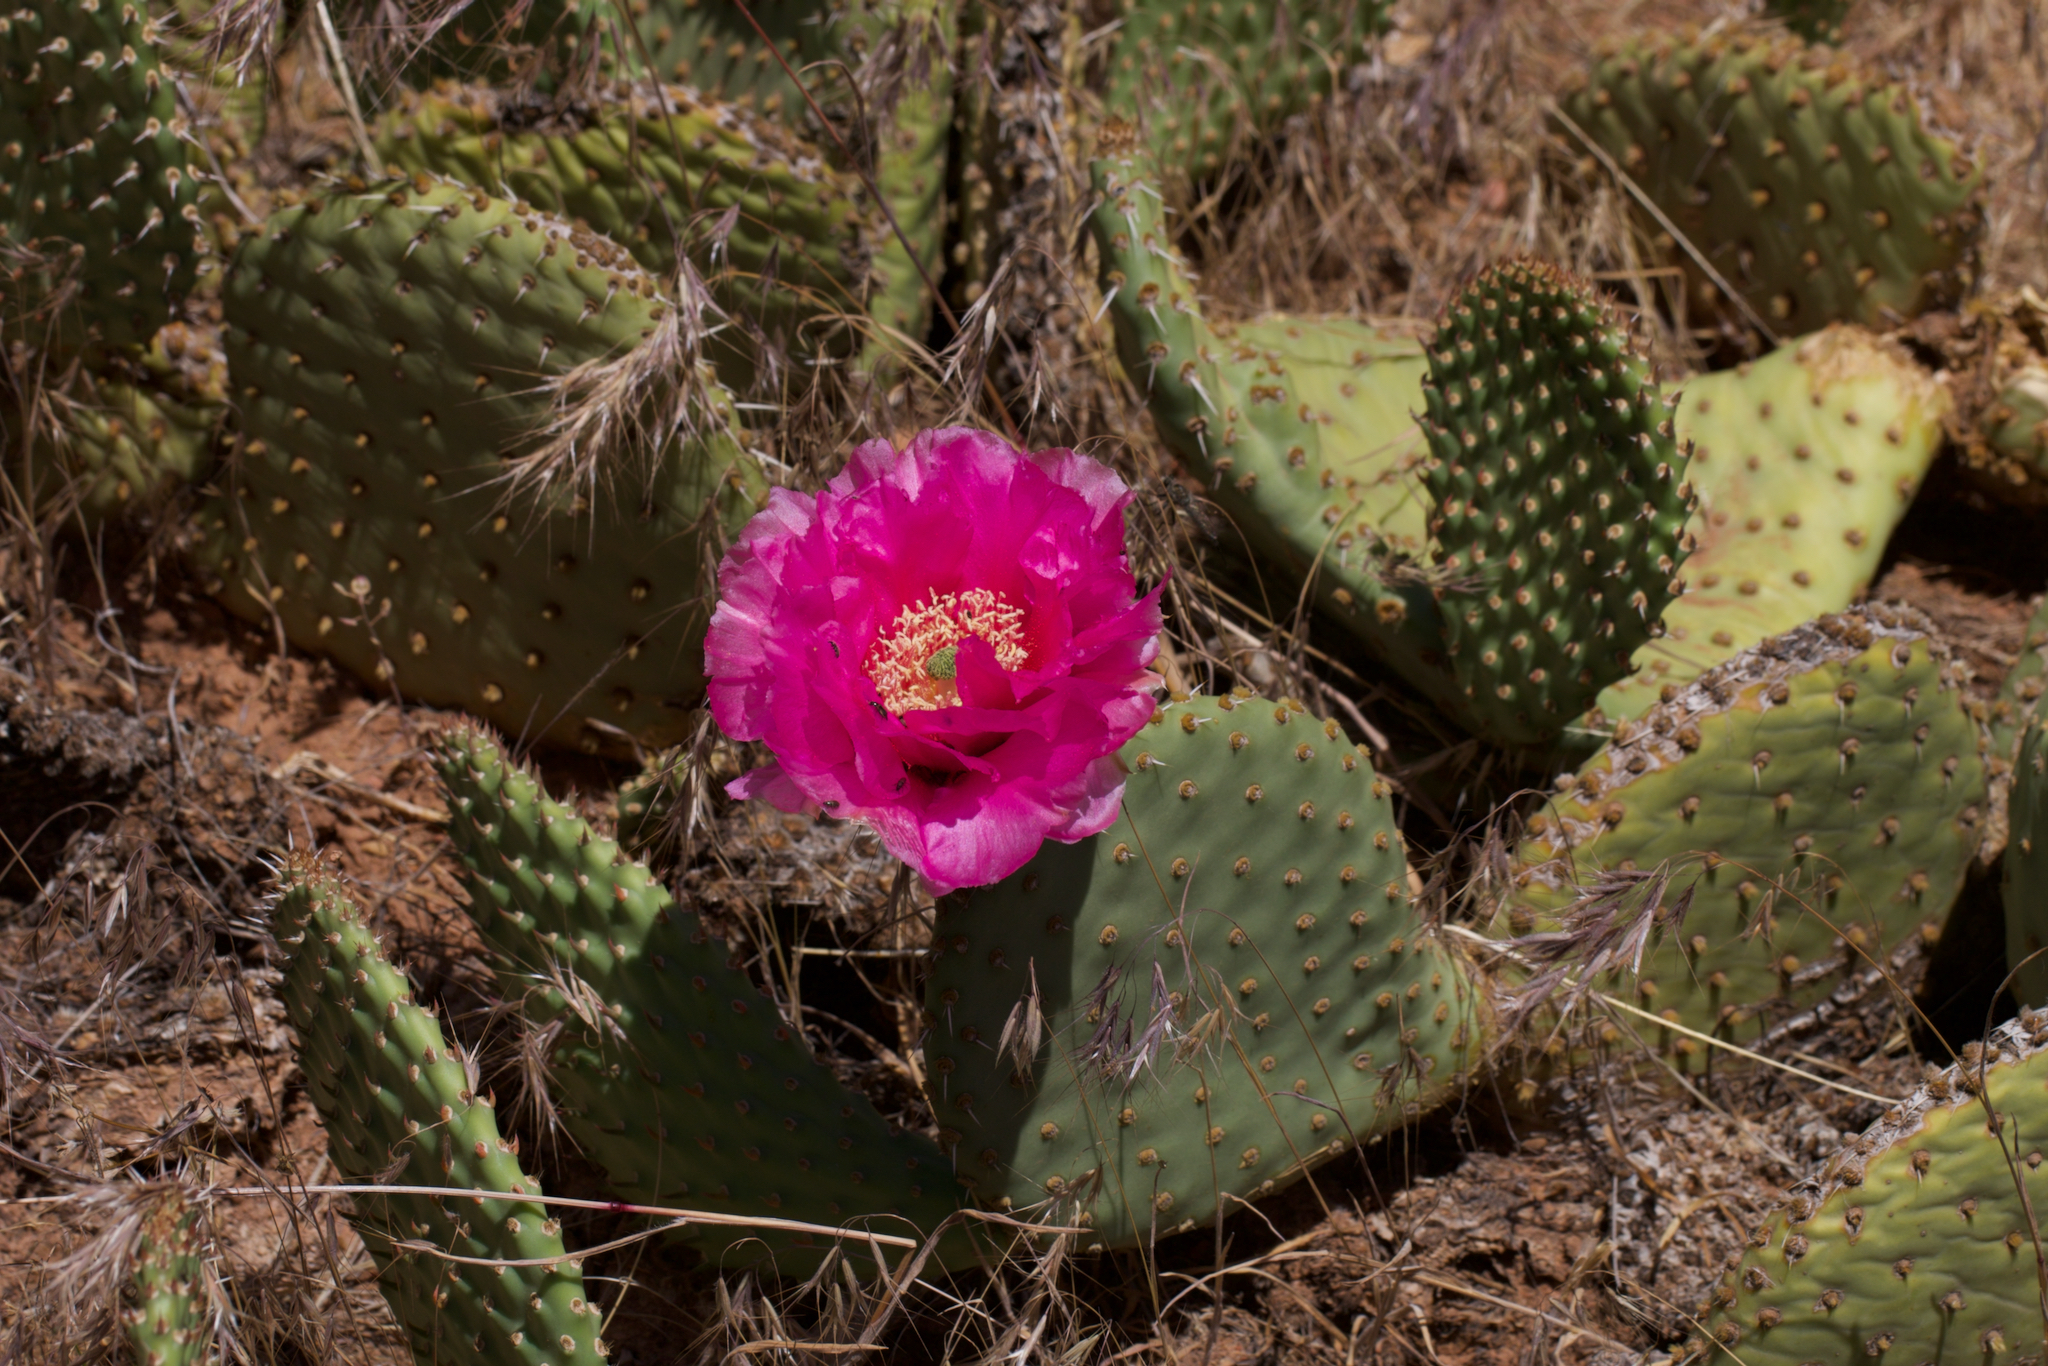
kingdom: Plantae
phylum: Tracheophyta
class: Magnoliopsida
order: Caryophyllales
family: Cactaceae
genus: Opuntia
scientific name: Opuntia aurea
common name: Golden prickly-pear
